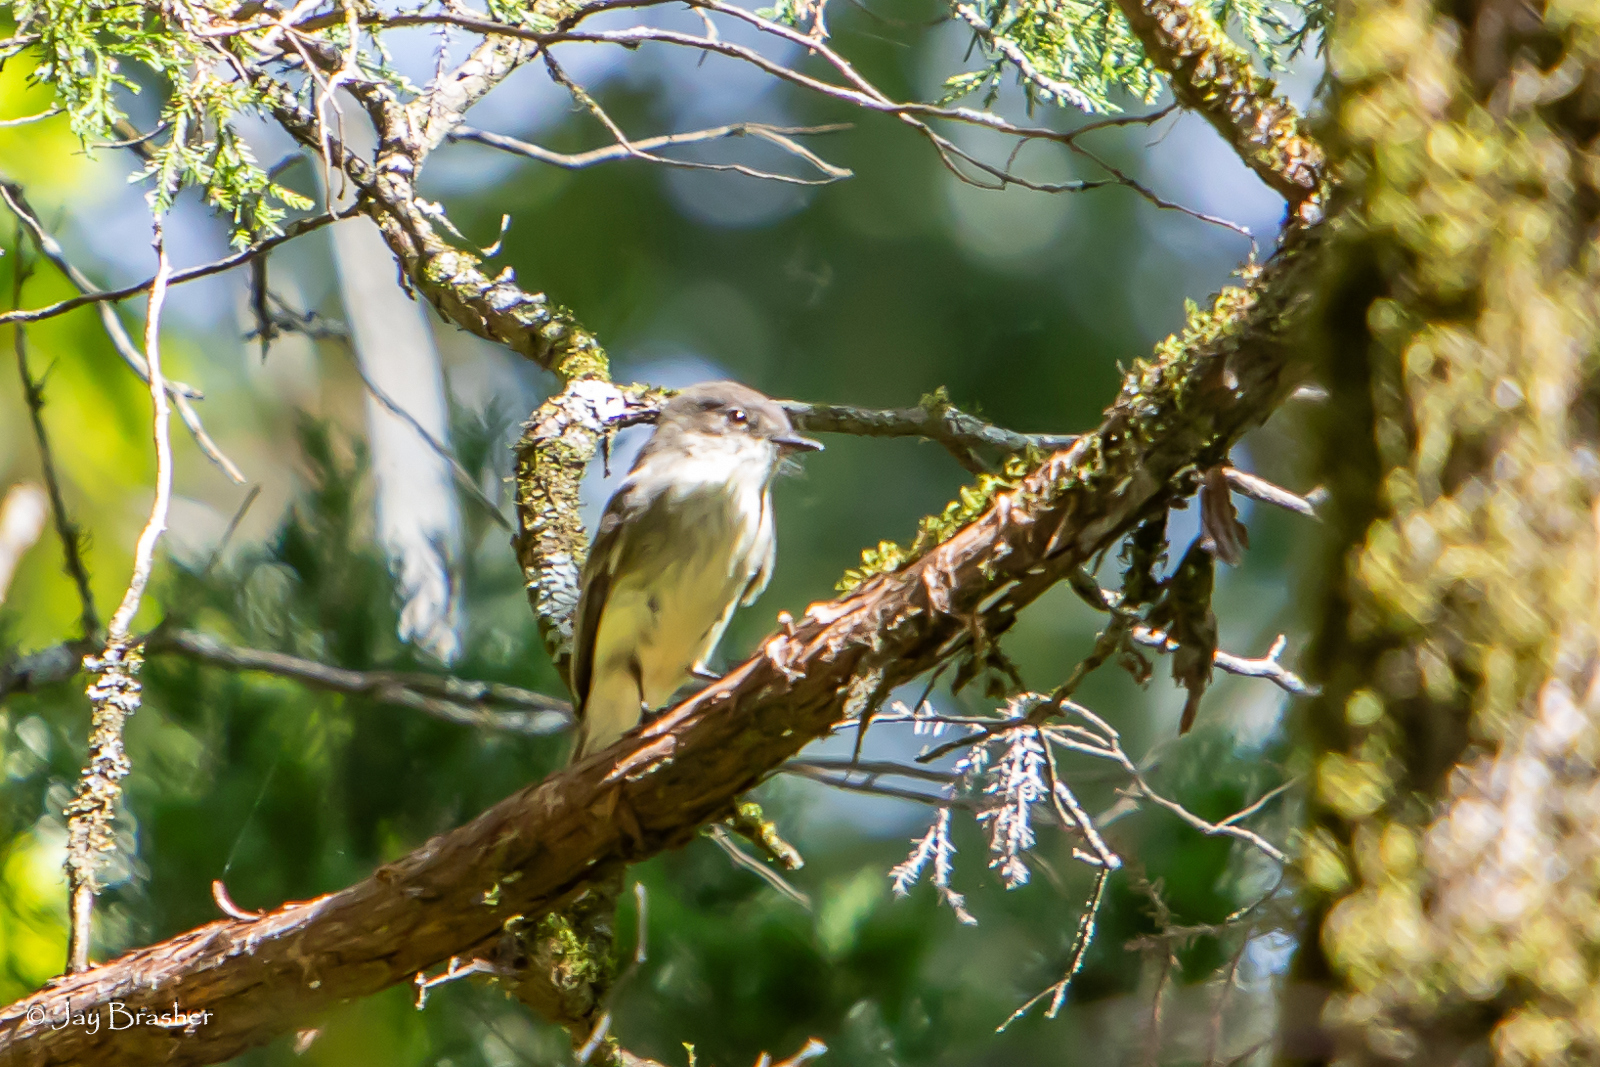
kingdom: Animalia
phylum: Chordata
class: Aves
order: Passeriformes
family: Tyrannidae
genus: Sayornis
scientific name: Sayornis phoebe
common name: Eastern phoebe
